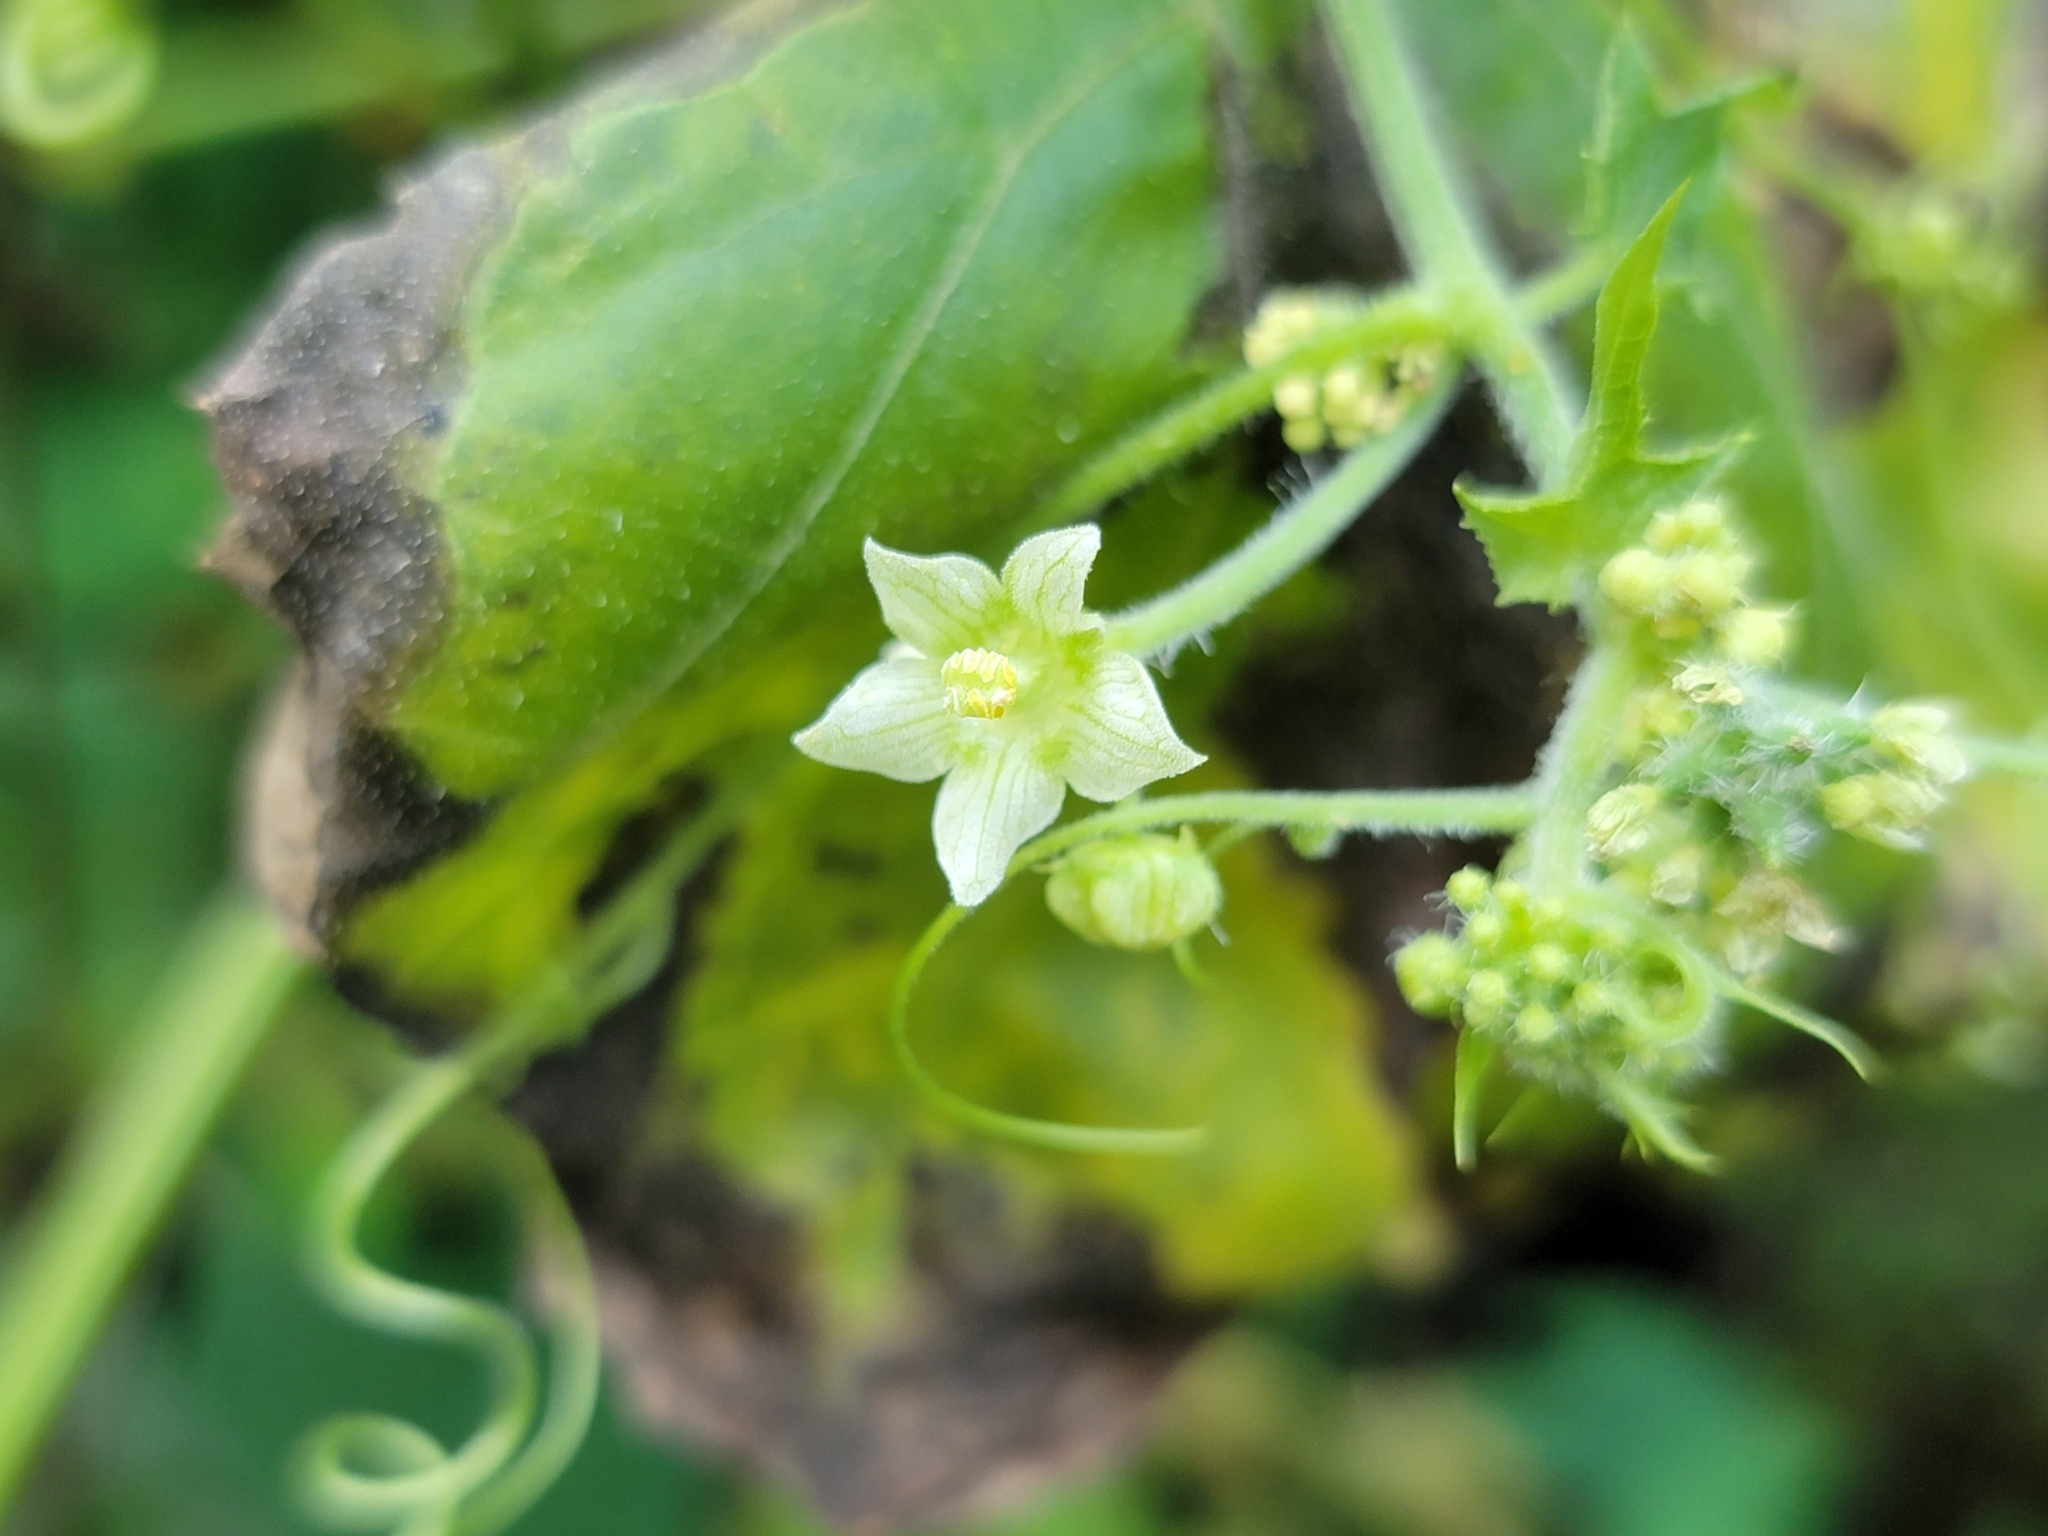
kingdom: Plantae
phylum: Tracheophyta
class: Magnoliopsida
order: Cucurbitales
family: Cucurbitaceae
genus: Sicyos
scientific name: Sicyos angulatus
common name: Angled burr cucumber
